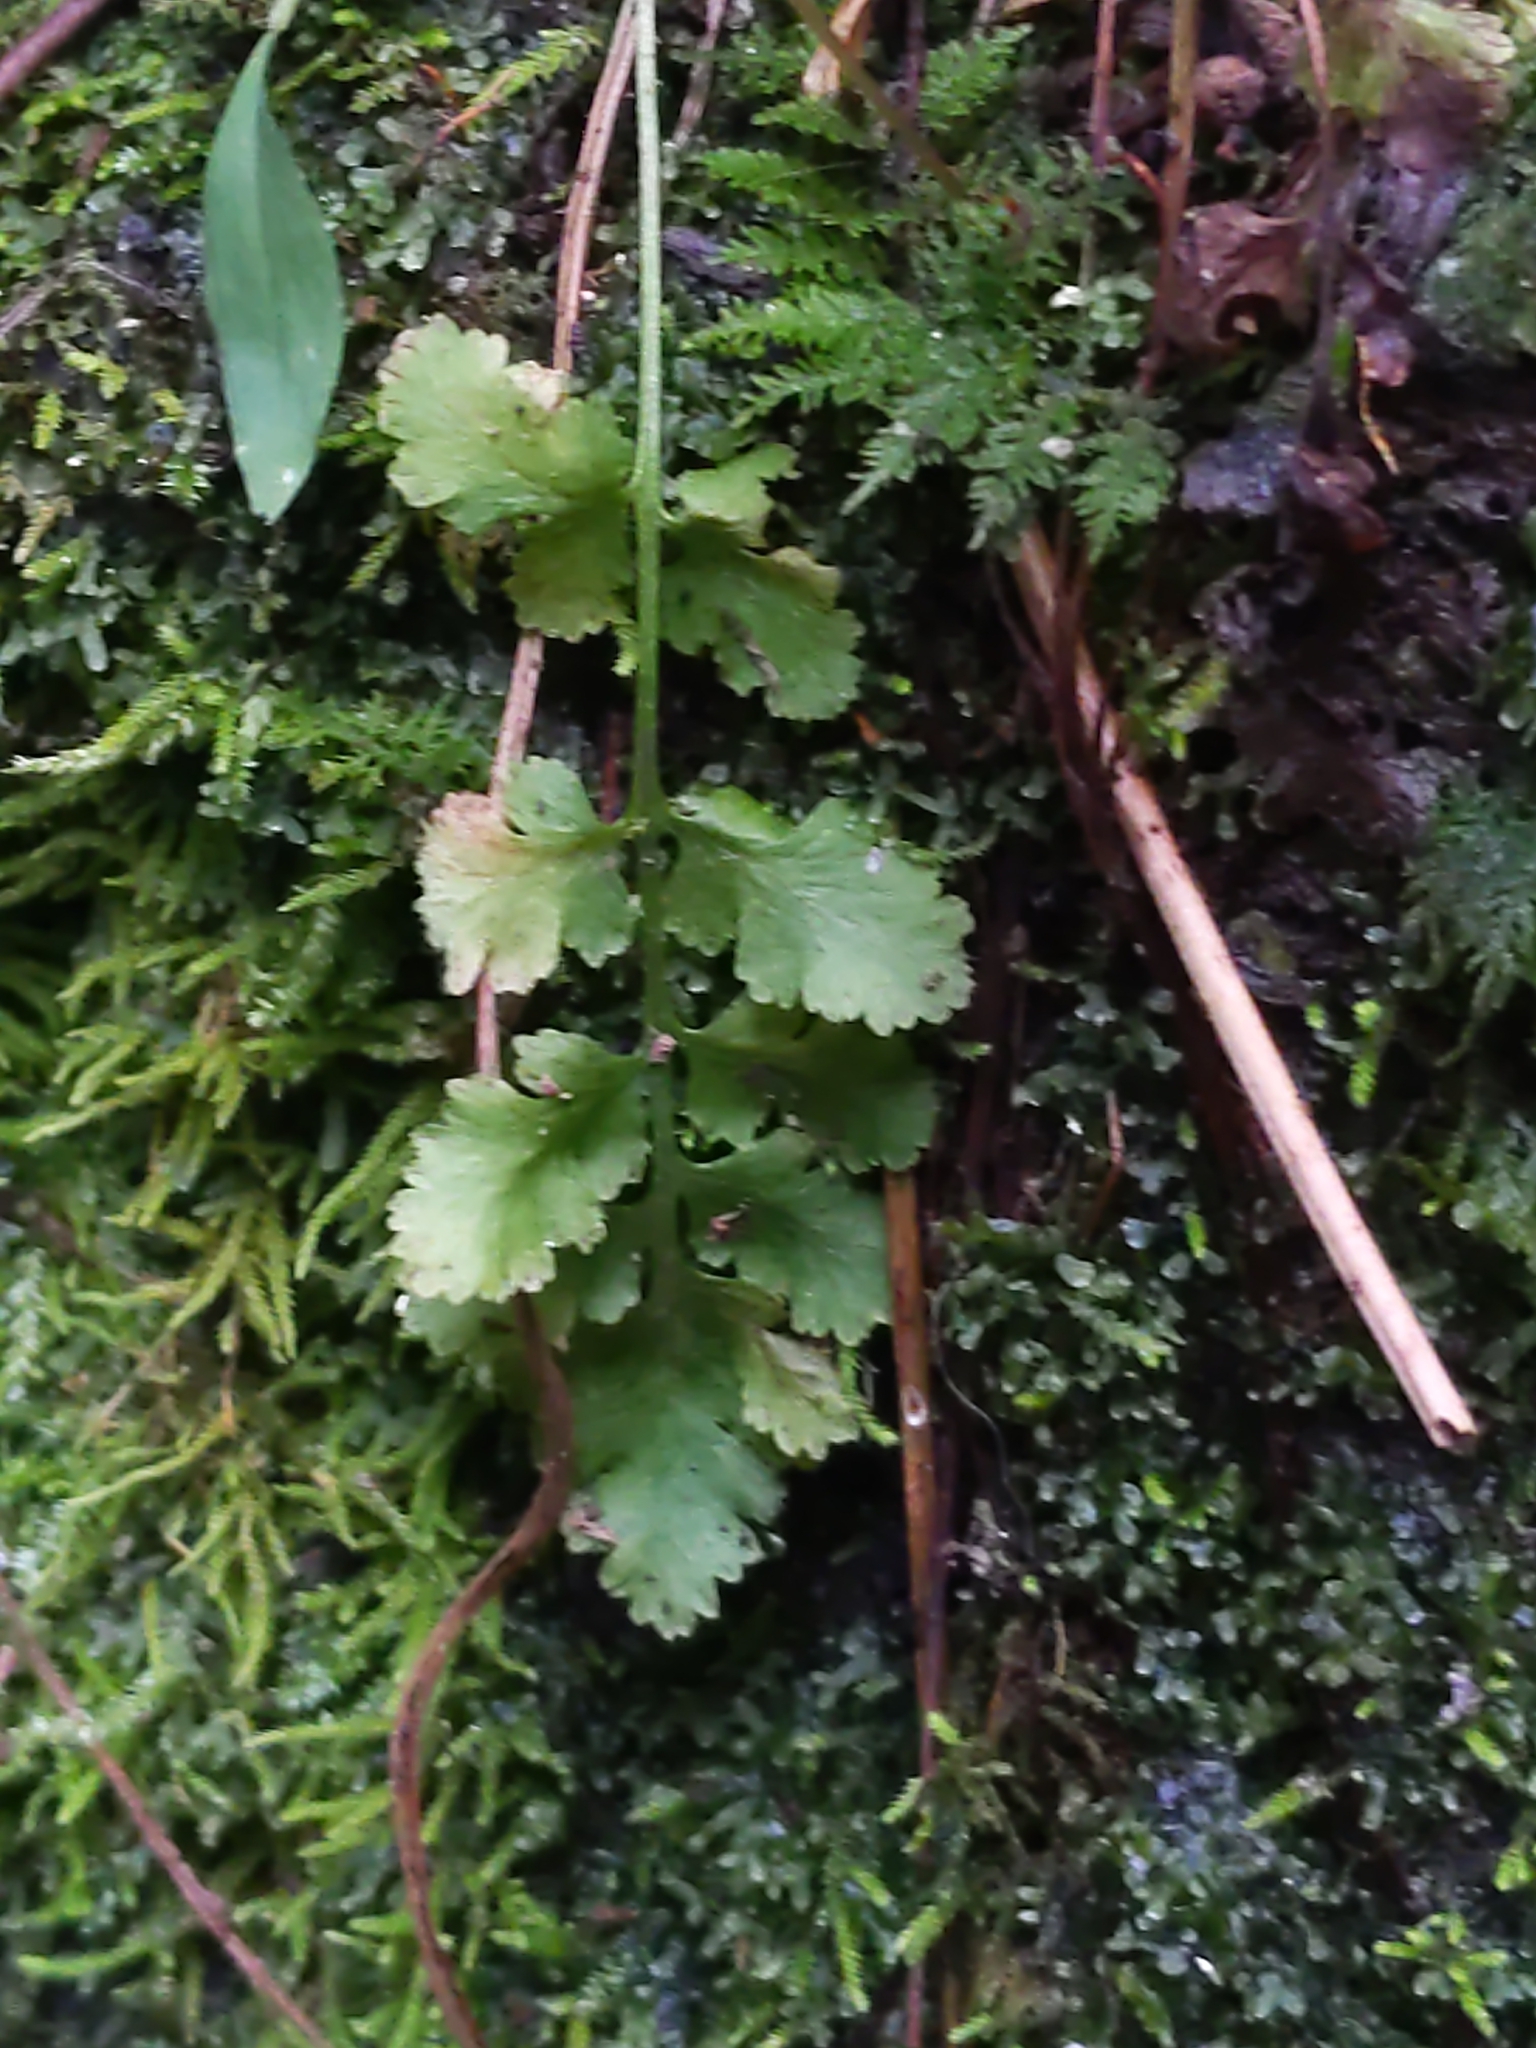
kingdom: Plantae
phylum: Tracheophyta
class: Polypodiopsida
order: Polypodiales
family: Woodsiaceae
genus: Physematium
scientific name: Physematium obtusum
